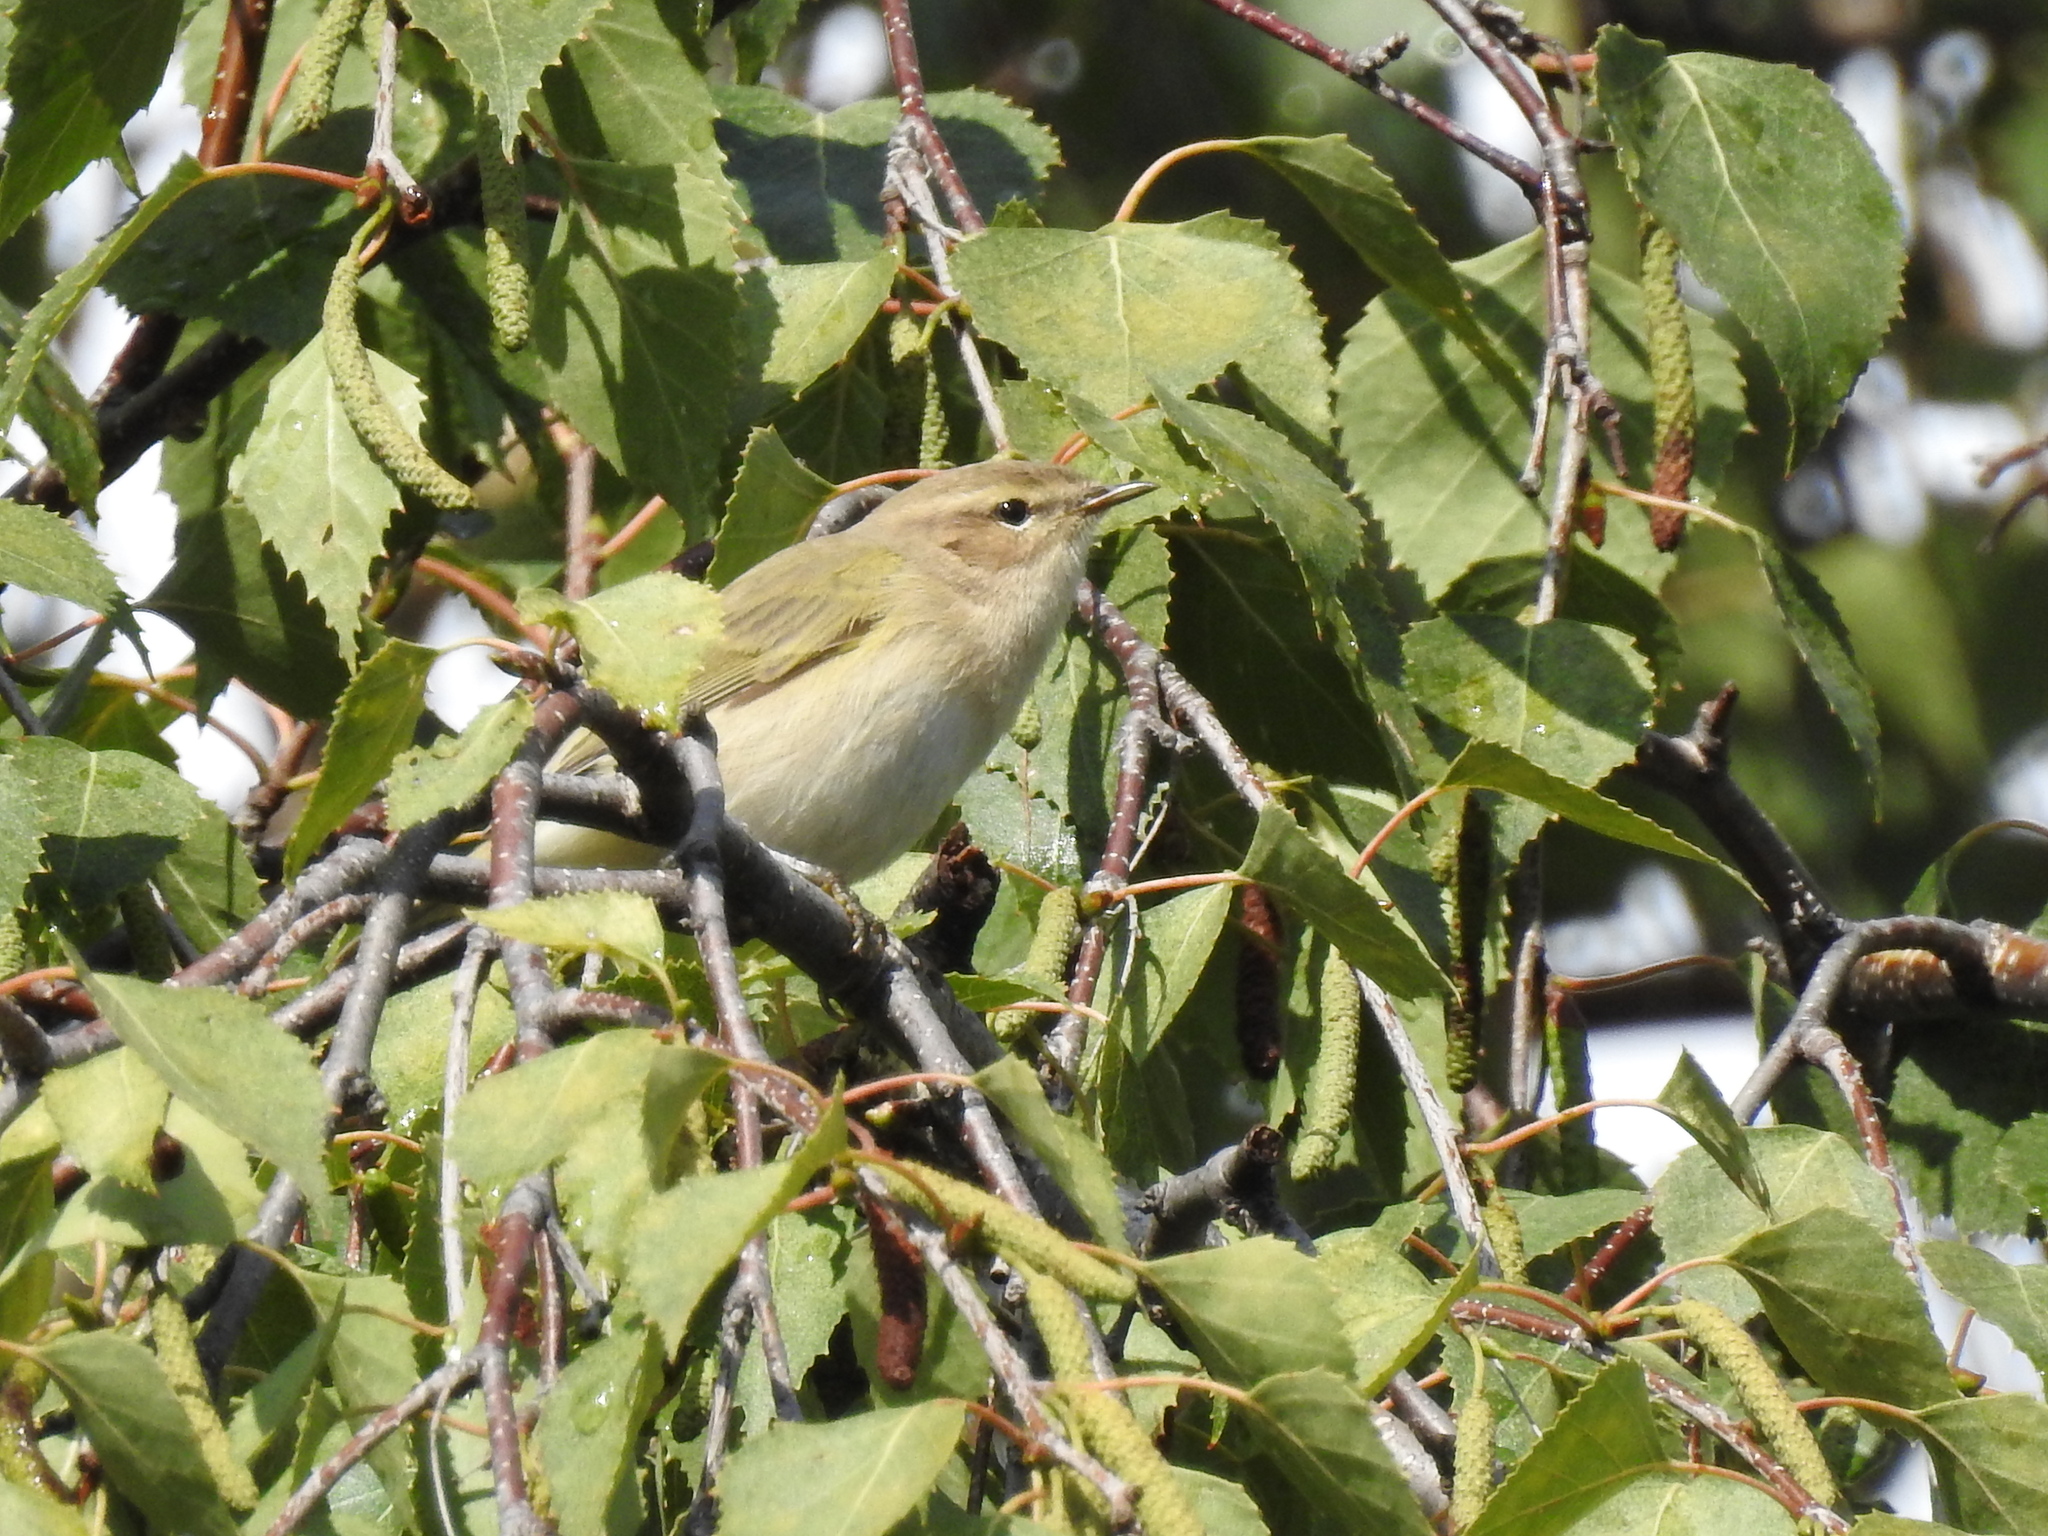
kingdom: Animalia
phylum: Chordata
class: Aves
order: Passeriformes
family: Phylloscopidae
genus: Phylloscopus
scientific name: Phylloscopus collybita
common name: Common chiffchaff
